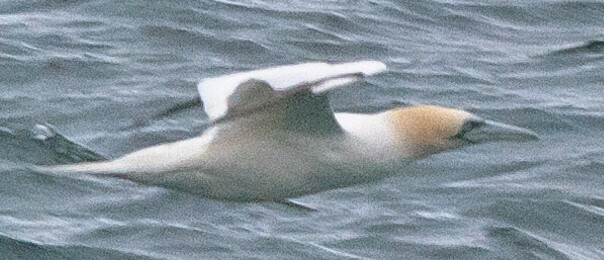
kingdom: Animalia
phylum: Chordata
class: Aves
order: Suliformes
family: Sulidae
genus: Morus
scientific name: Morus bassanus
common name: Northern gannet
